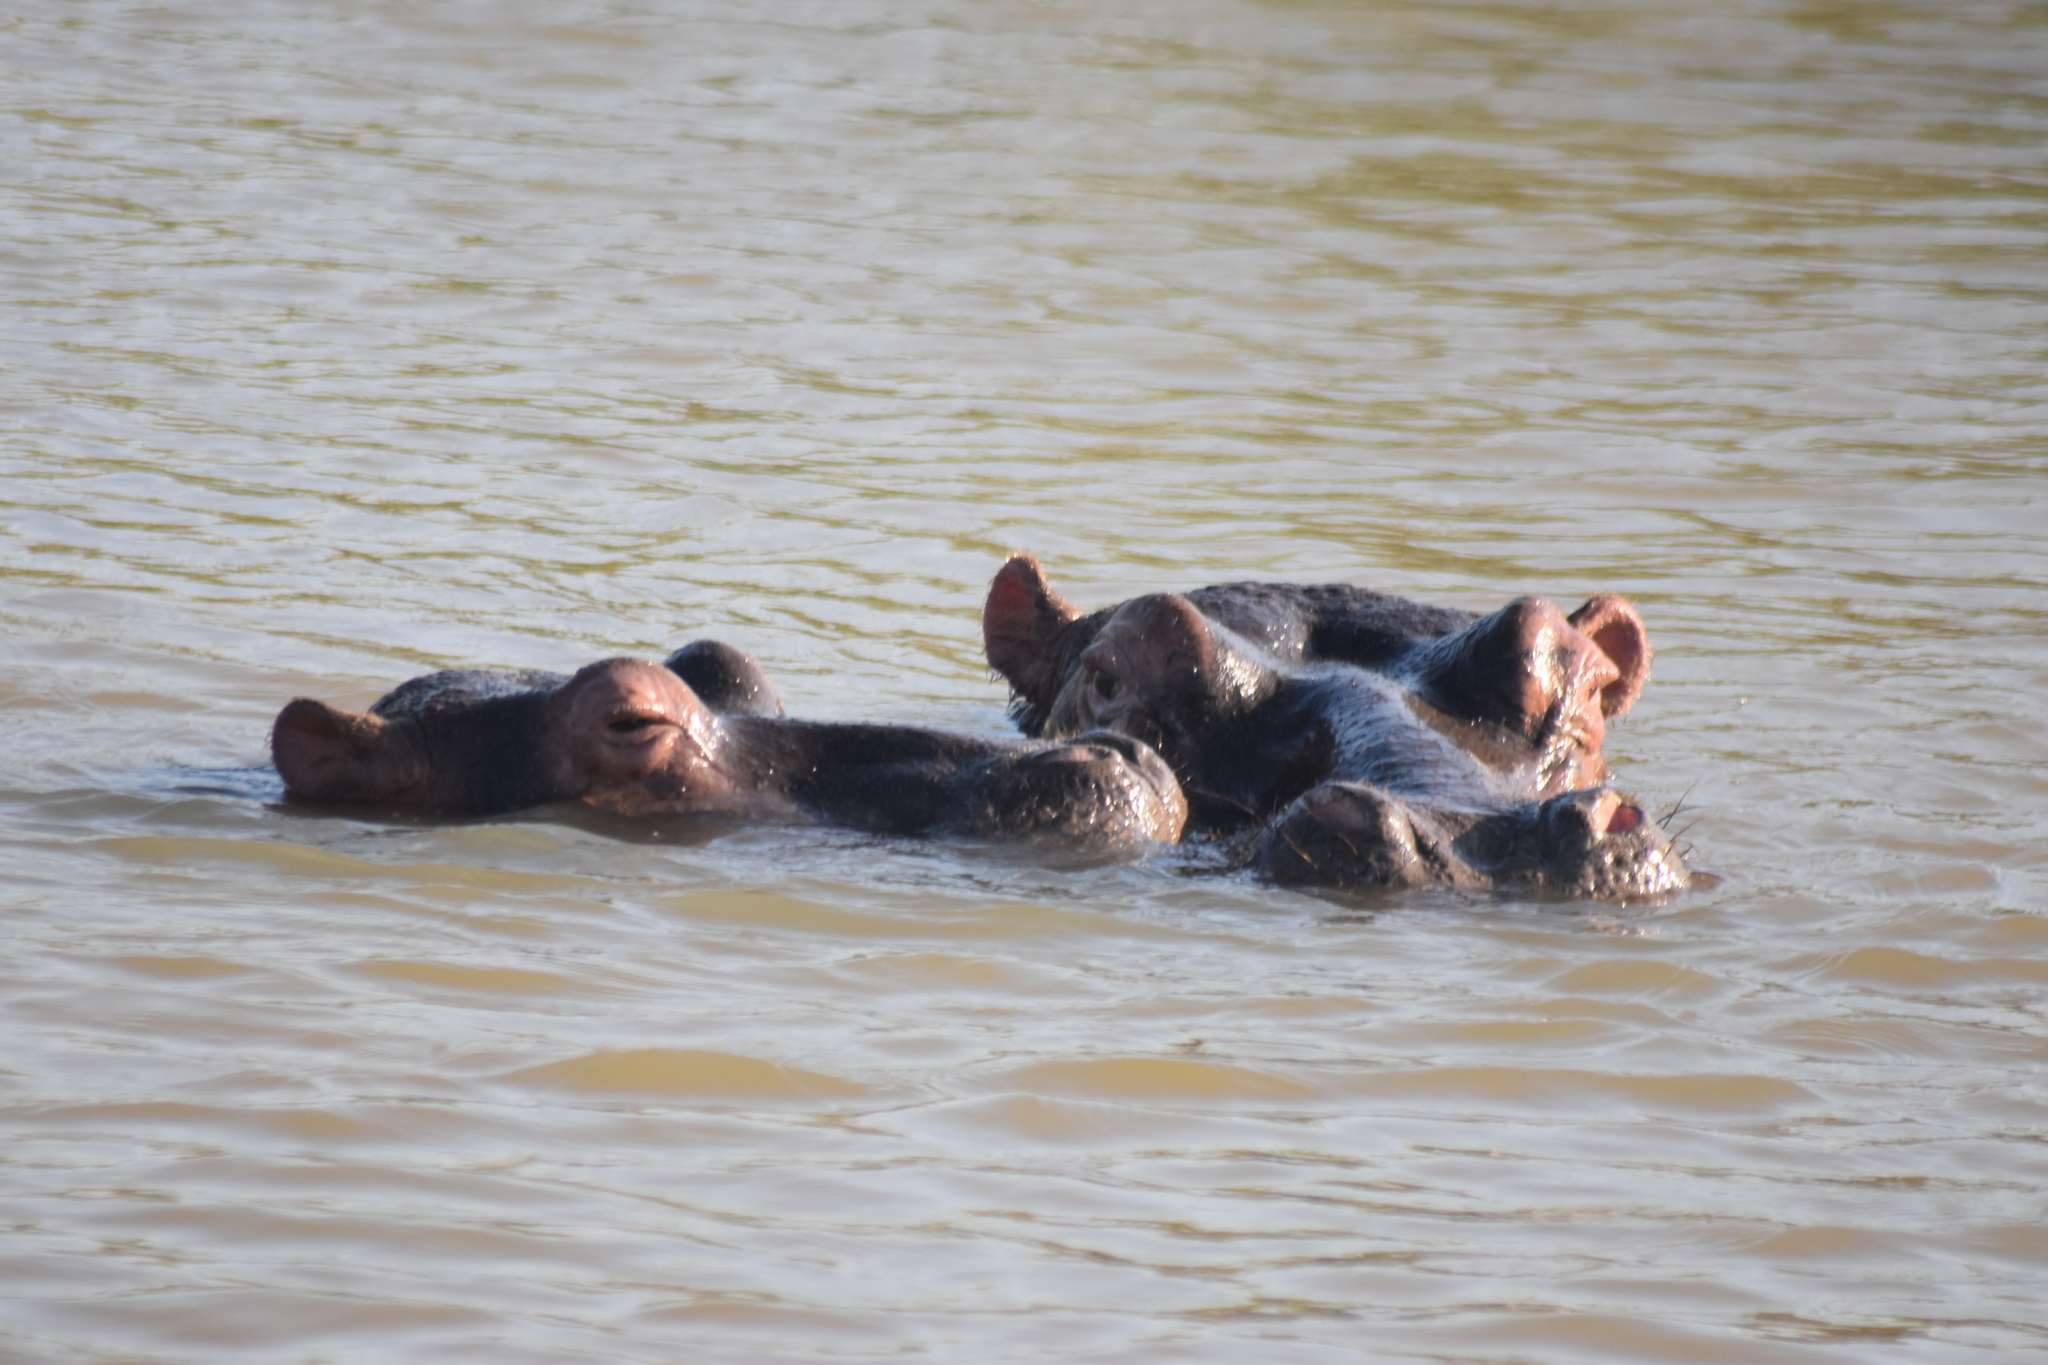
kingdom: Animalia
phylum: Chordata
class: Mammalia
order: Artiodactyla
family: Hippopotamidae
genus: Hippopotamus
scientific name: Hippopotamus amphibius
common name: Common hippopotamus
